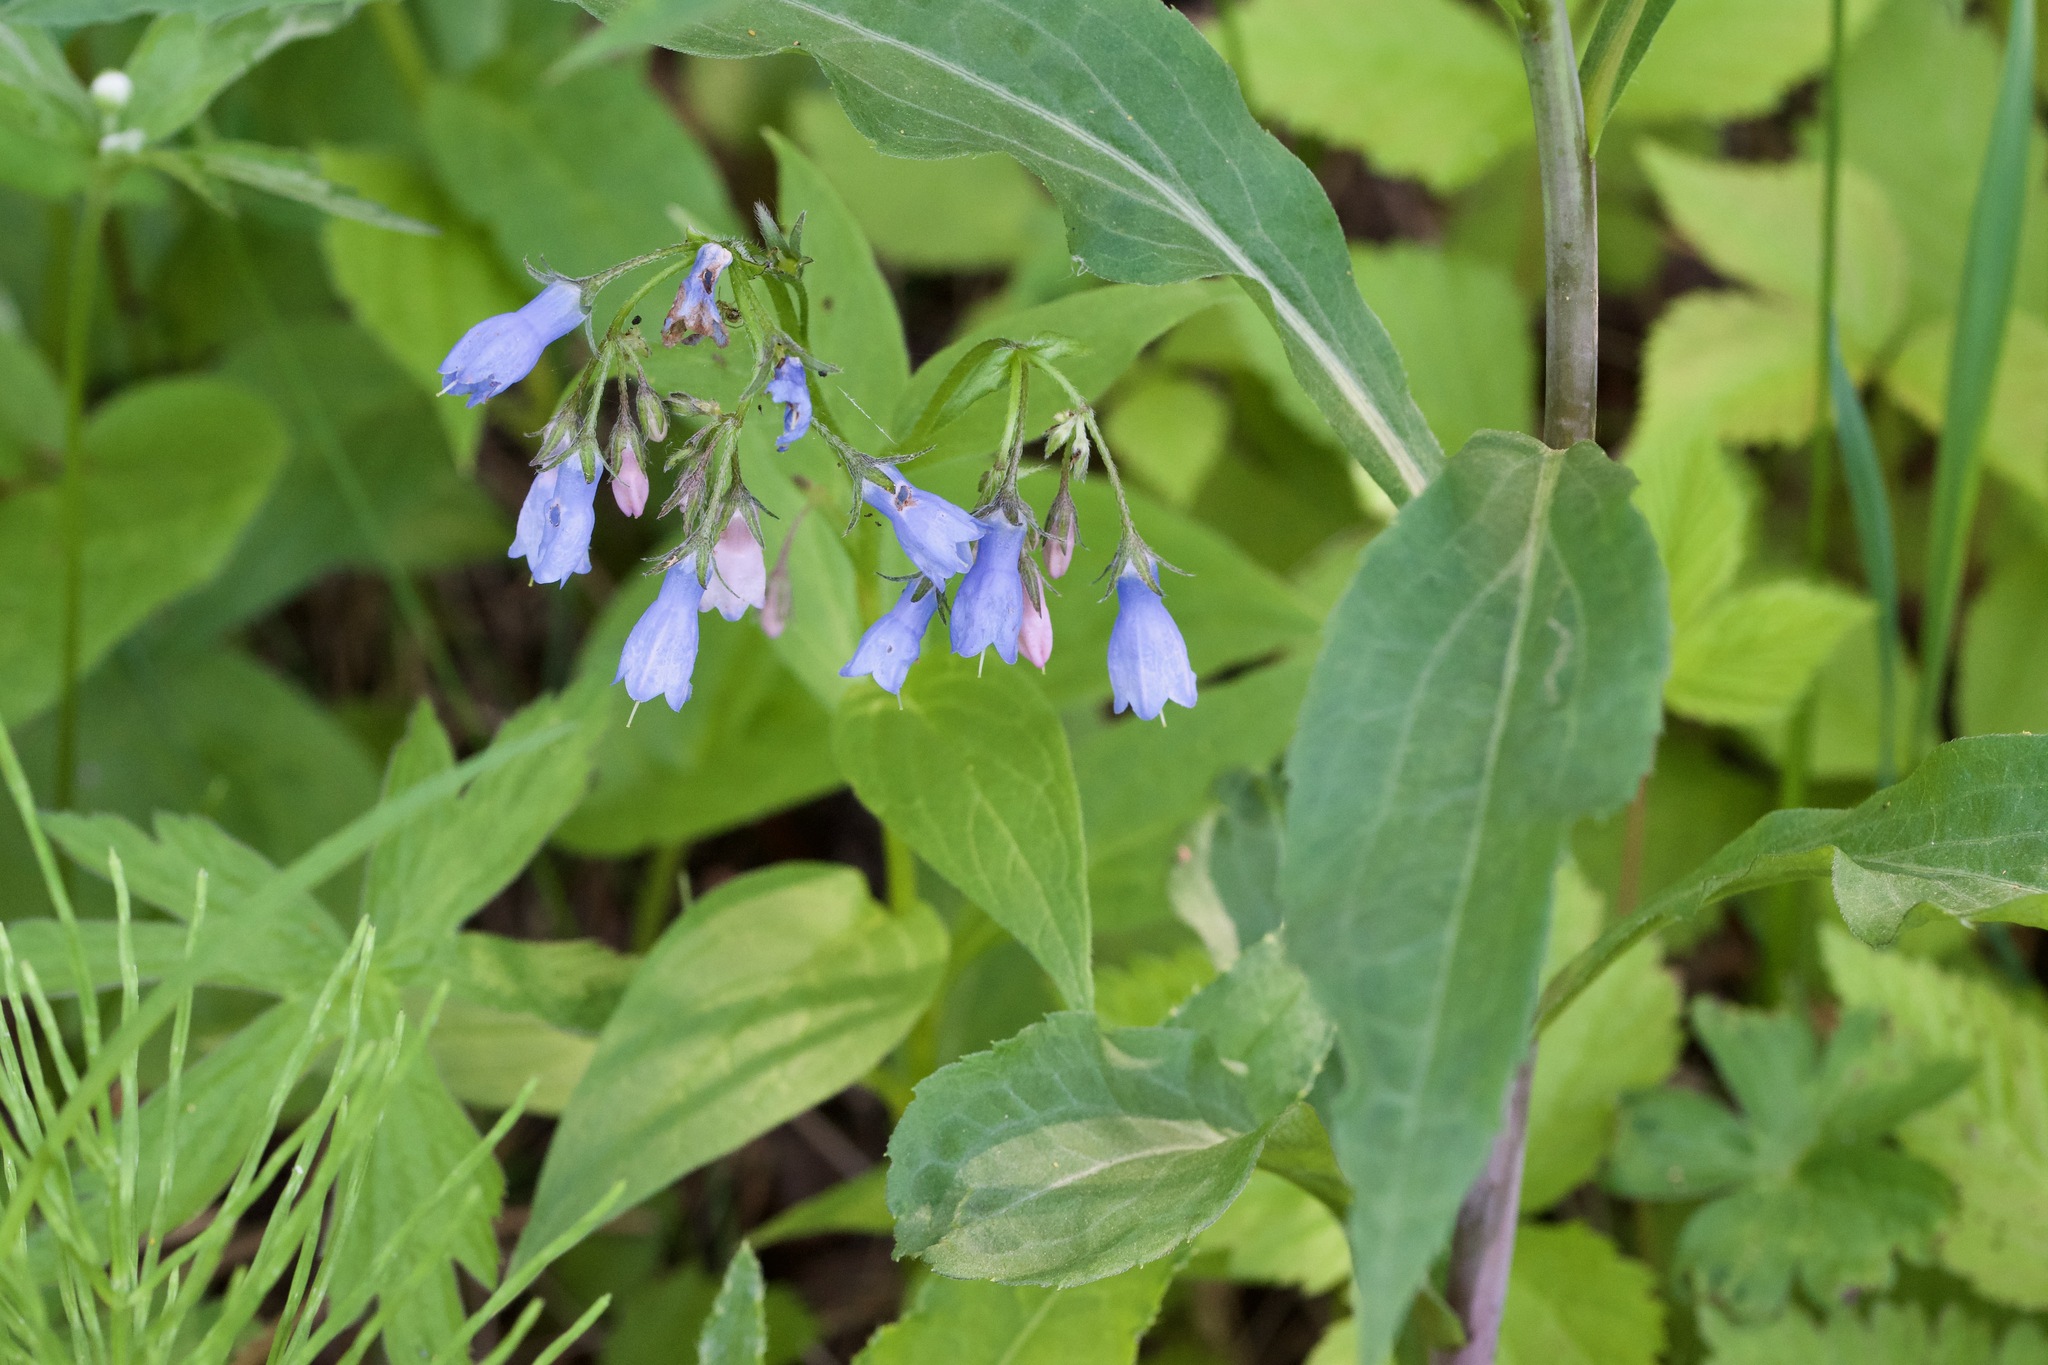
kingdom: Plantae
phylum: Tracheophyta
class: Magnoliopsida
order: Boraginales
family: Boraginaceae
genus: Mertensia
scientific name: Mertensia paniculata
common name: Panicled bluebells
